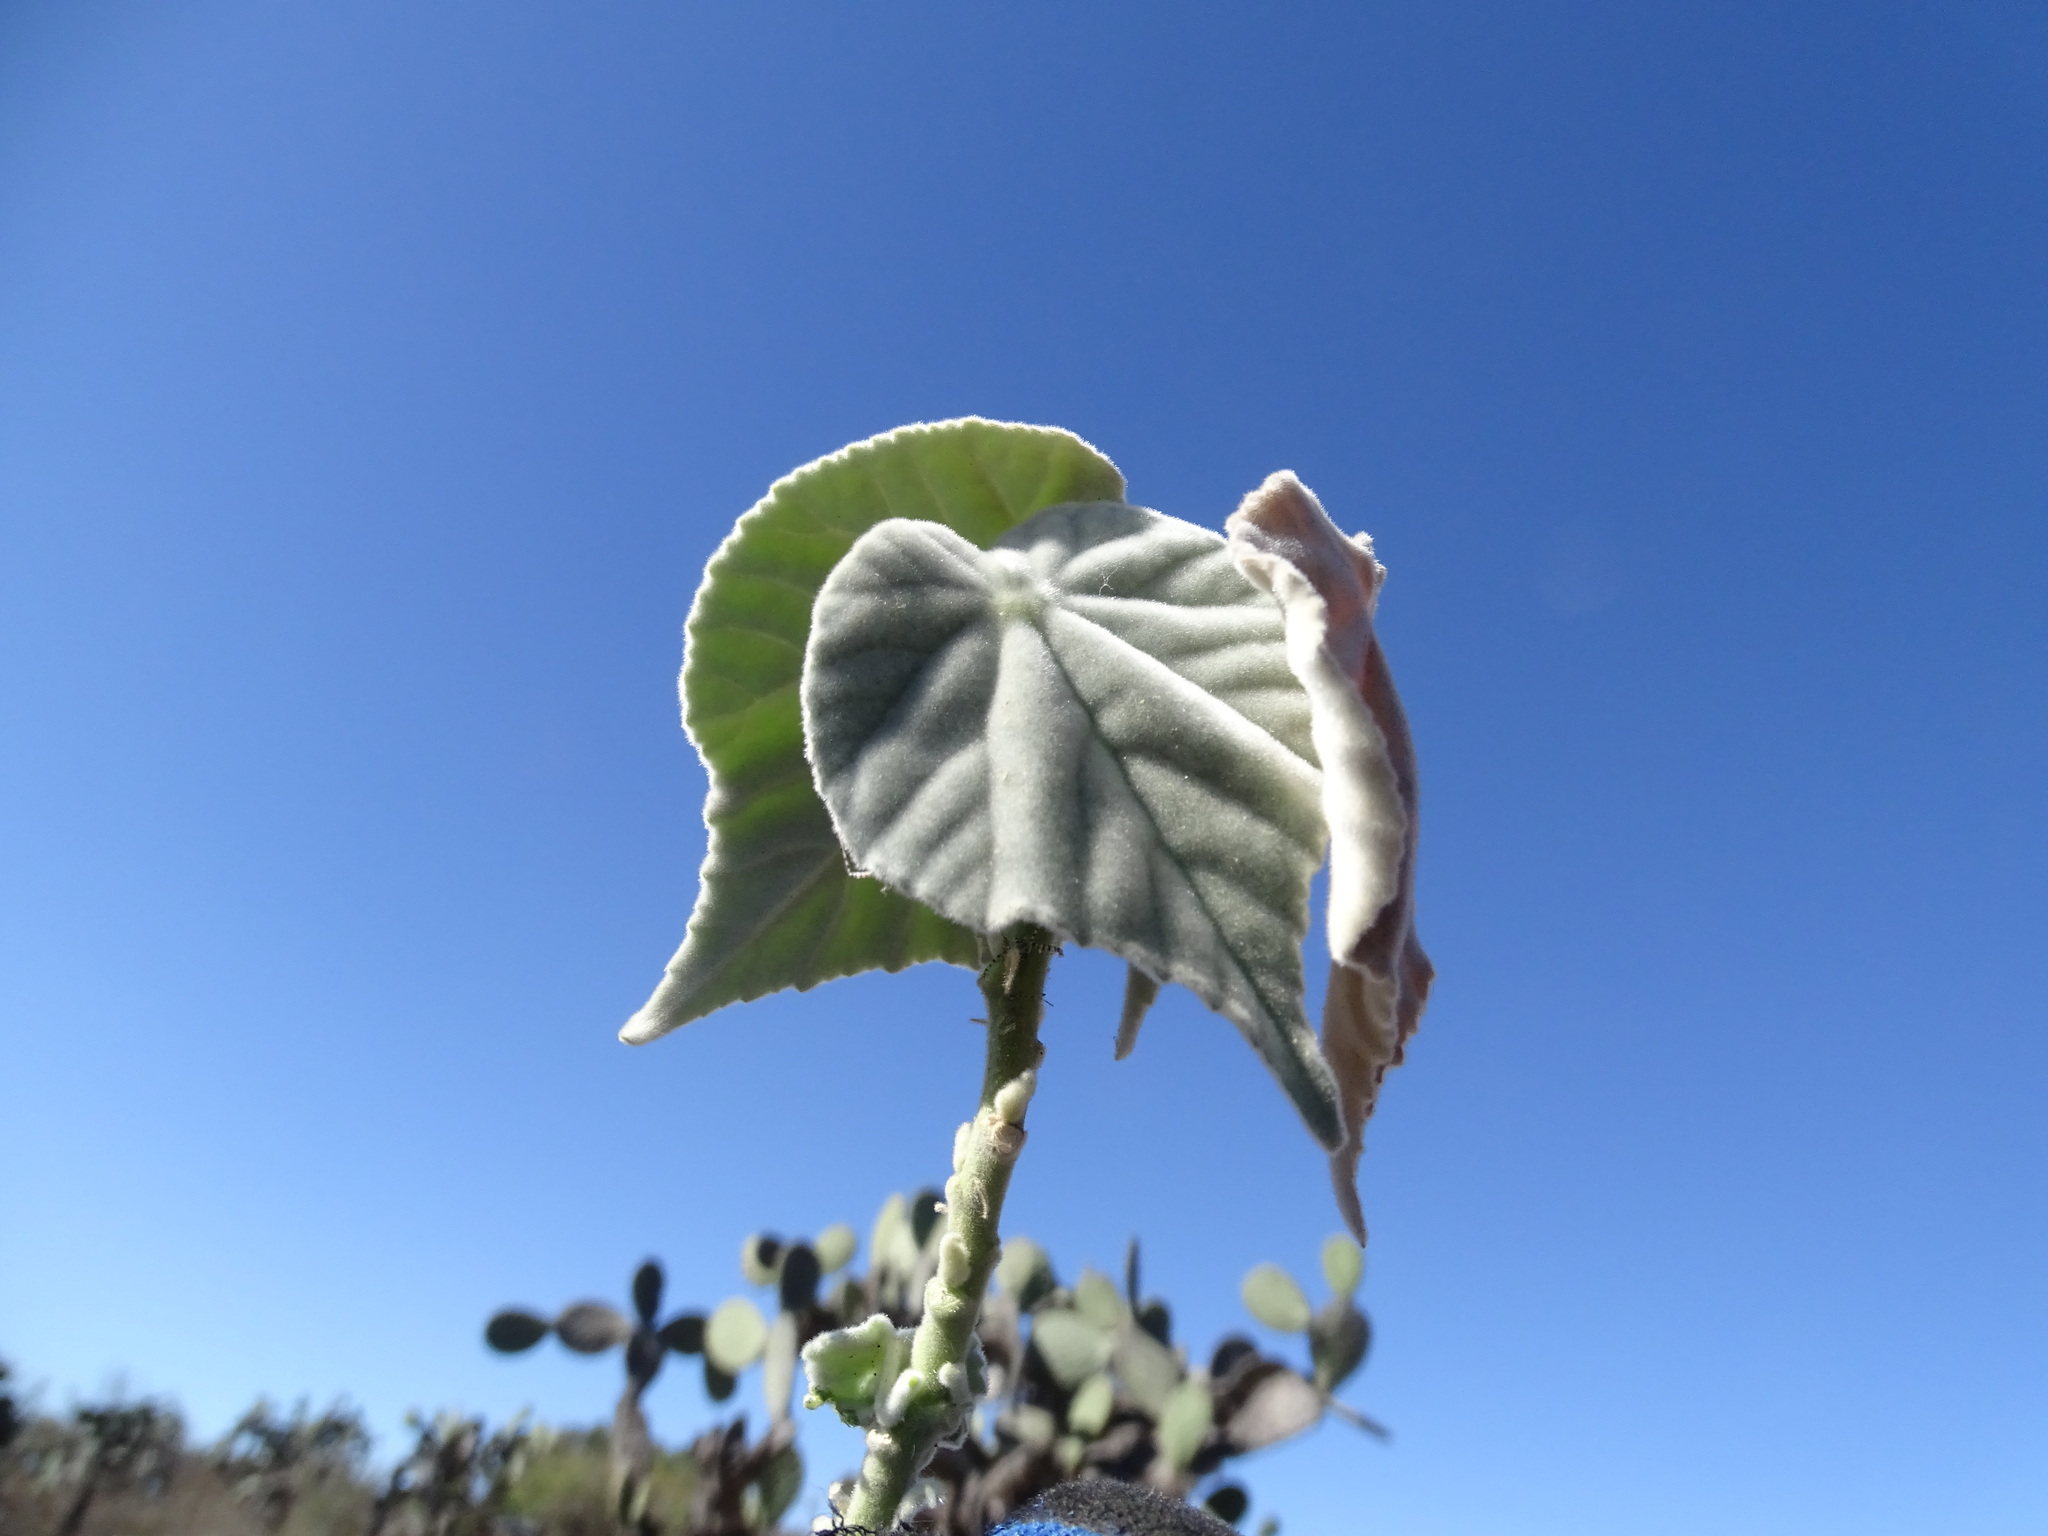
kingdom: Plantae
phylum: Tracheophyta
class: Magnoliopsida
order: Malvales
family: Malvaceae
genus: Abutilon
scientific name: Abutilon reventum
